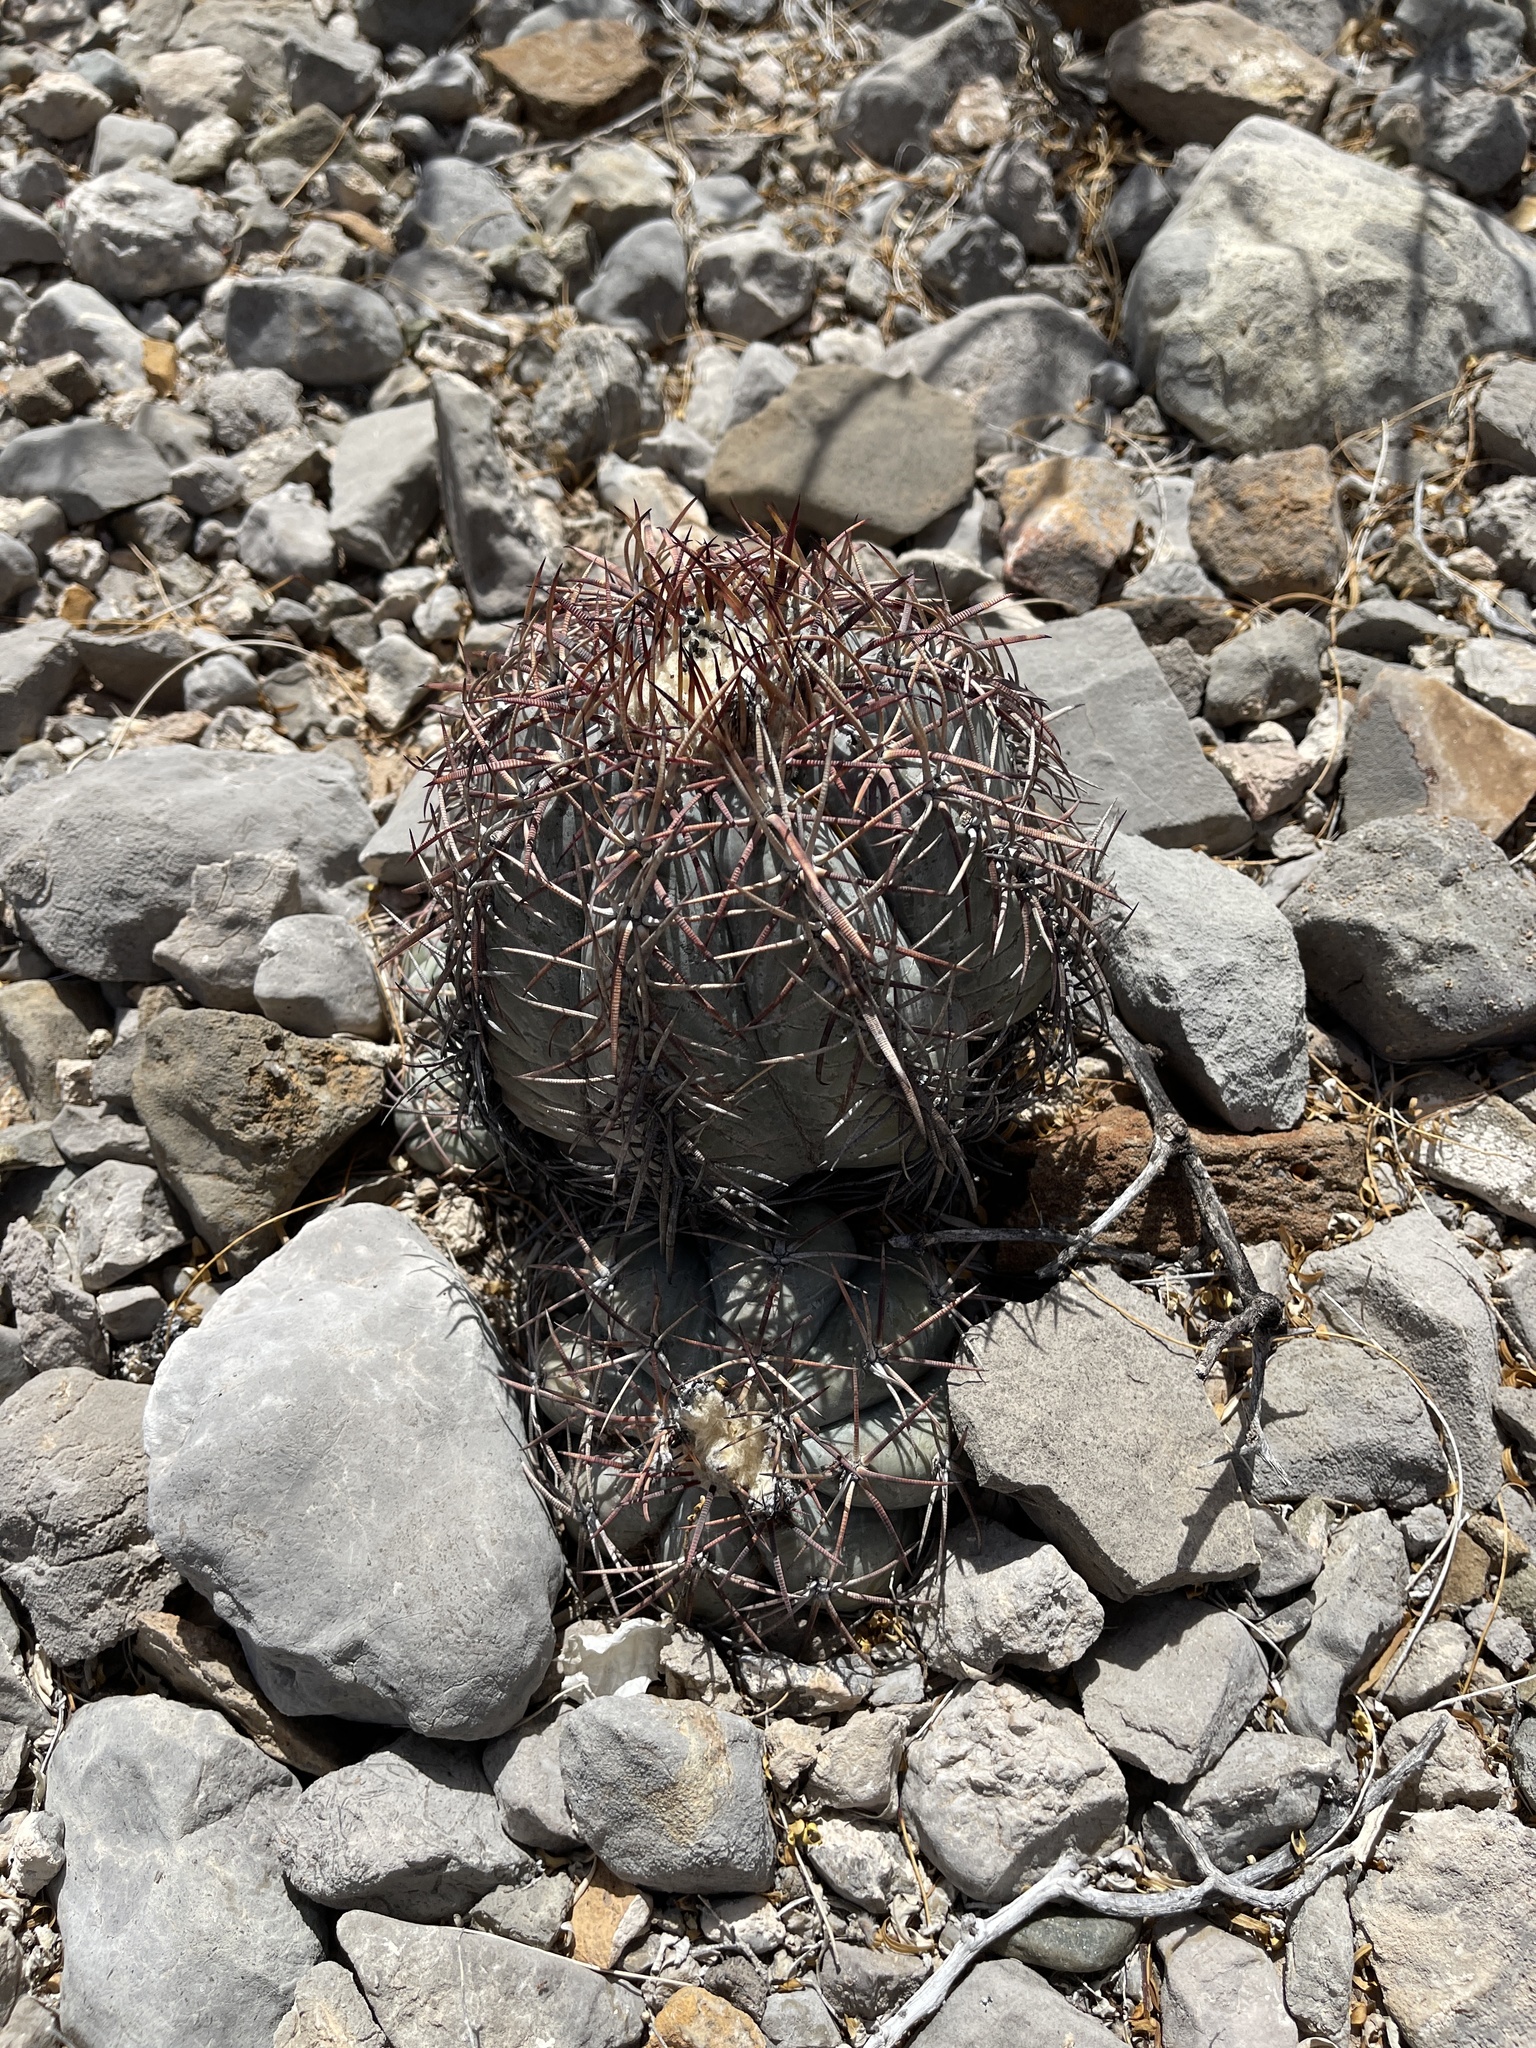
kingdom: Plantae
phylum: Tracheophyta
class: Magnoliopsida
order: Caryophyllales
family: Cactaceae
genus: Echinocactus
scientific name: Echinocactus horizonthalonius
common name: Devilshead
